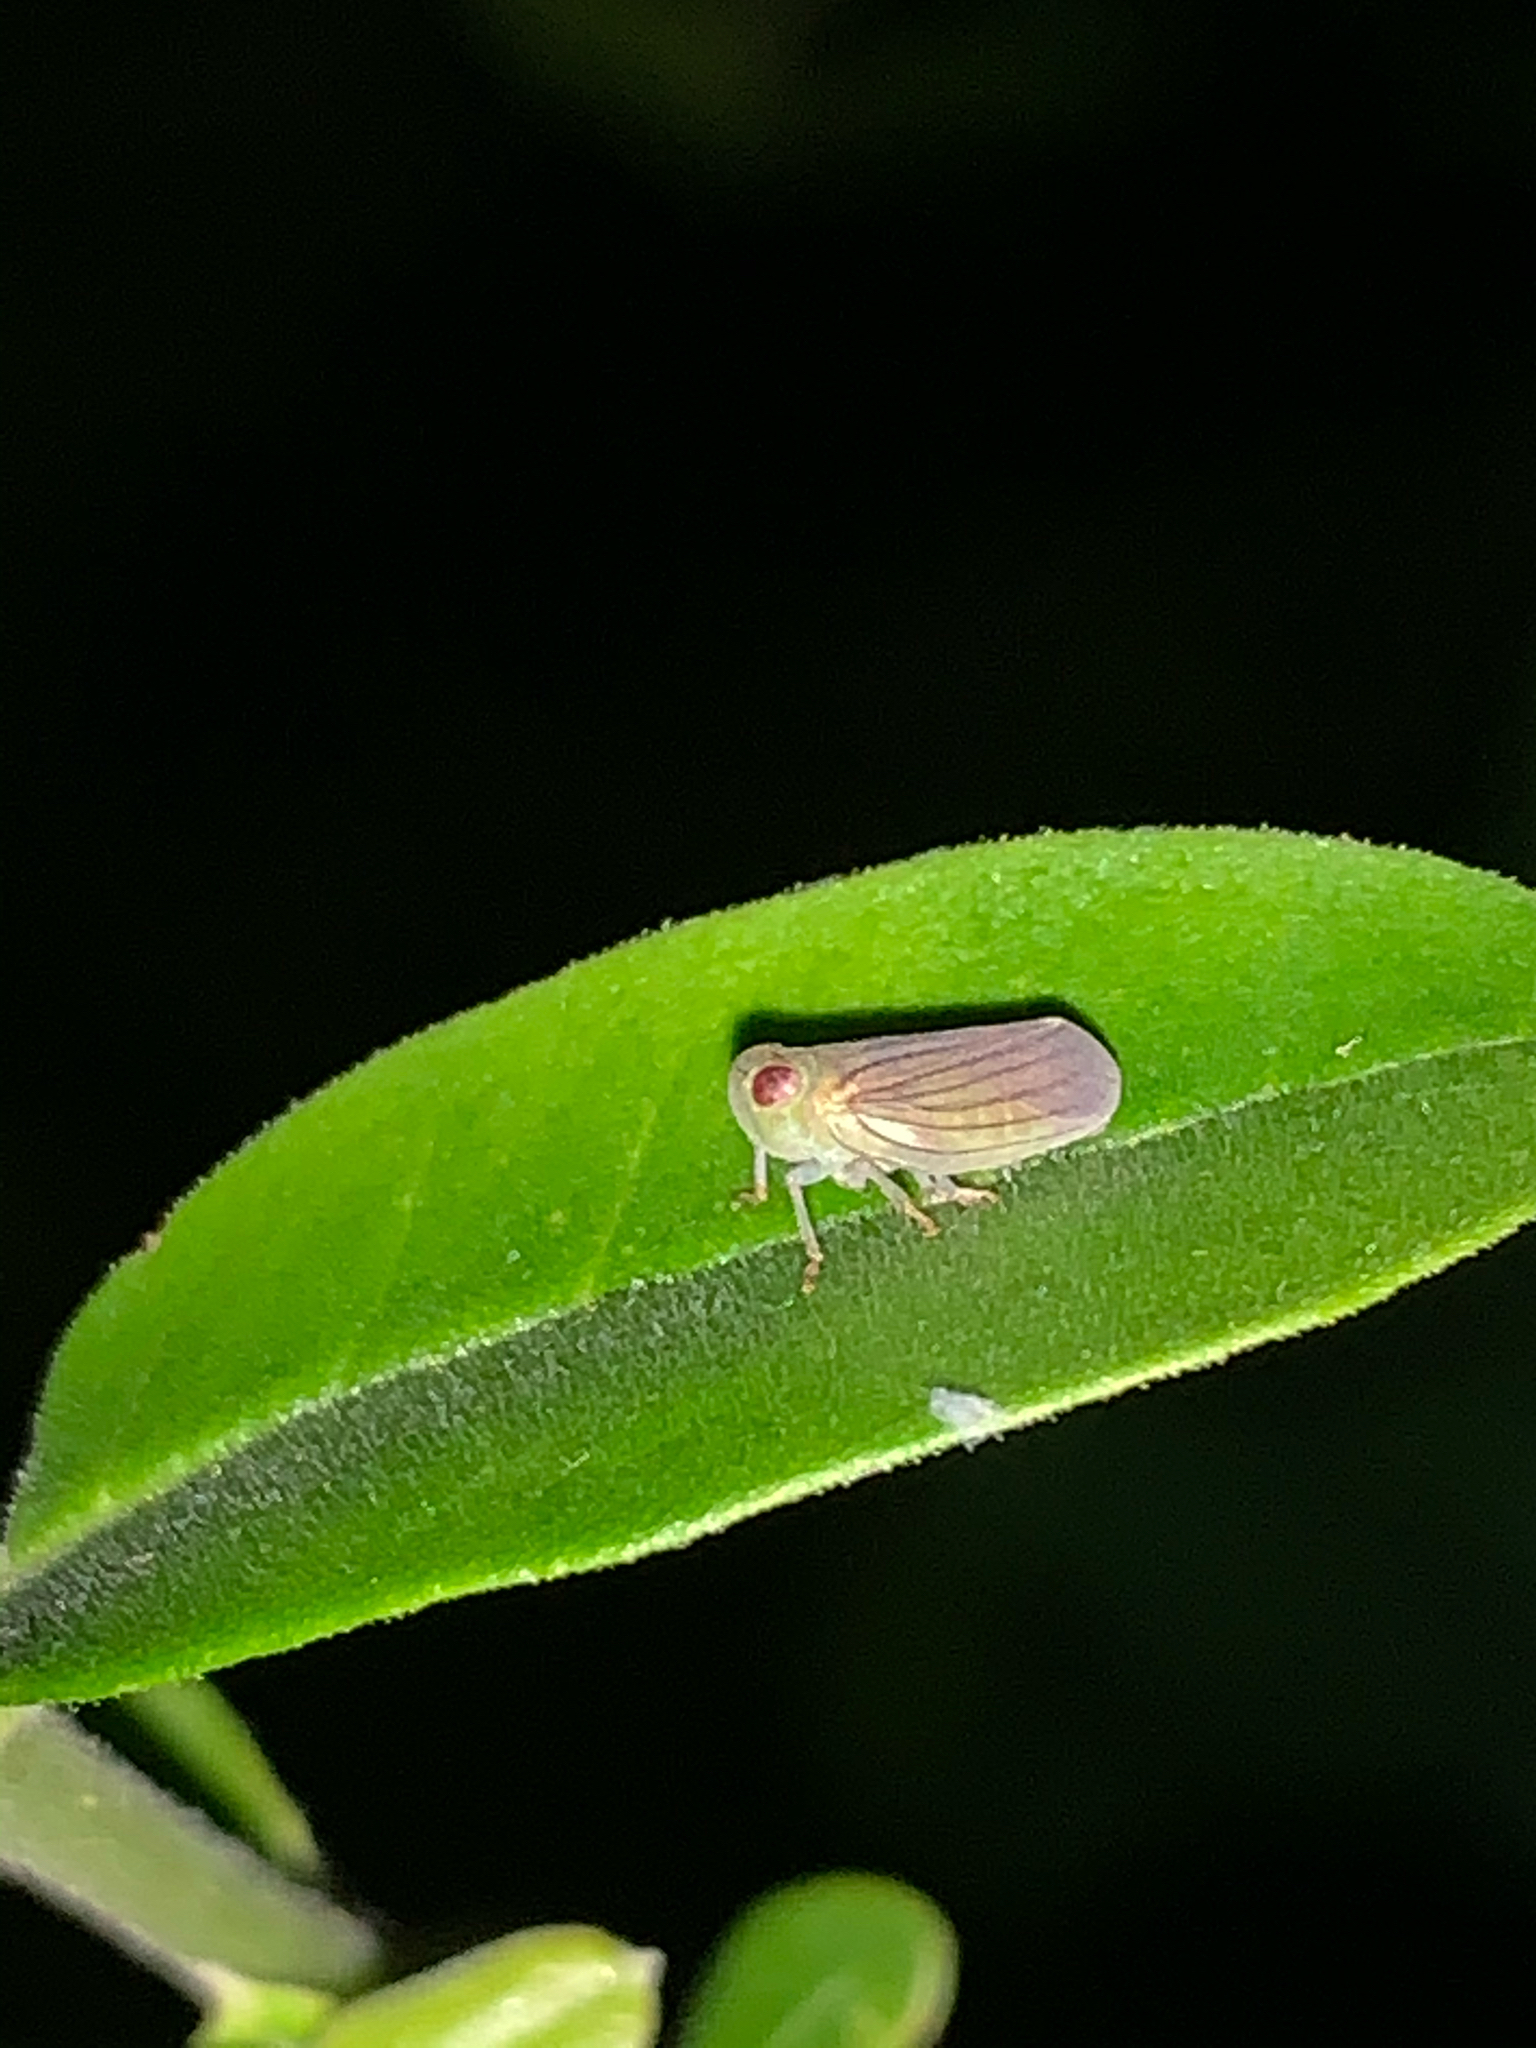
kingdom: Animalia
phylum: Arthropoda
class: Insecta
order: Hemiptera
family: Issidae
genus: Aplos
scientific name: Aplos simplex
